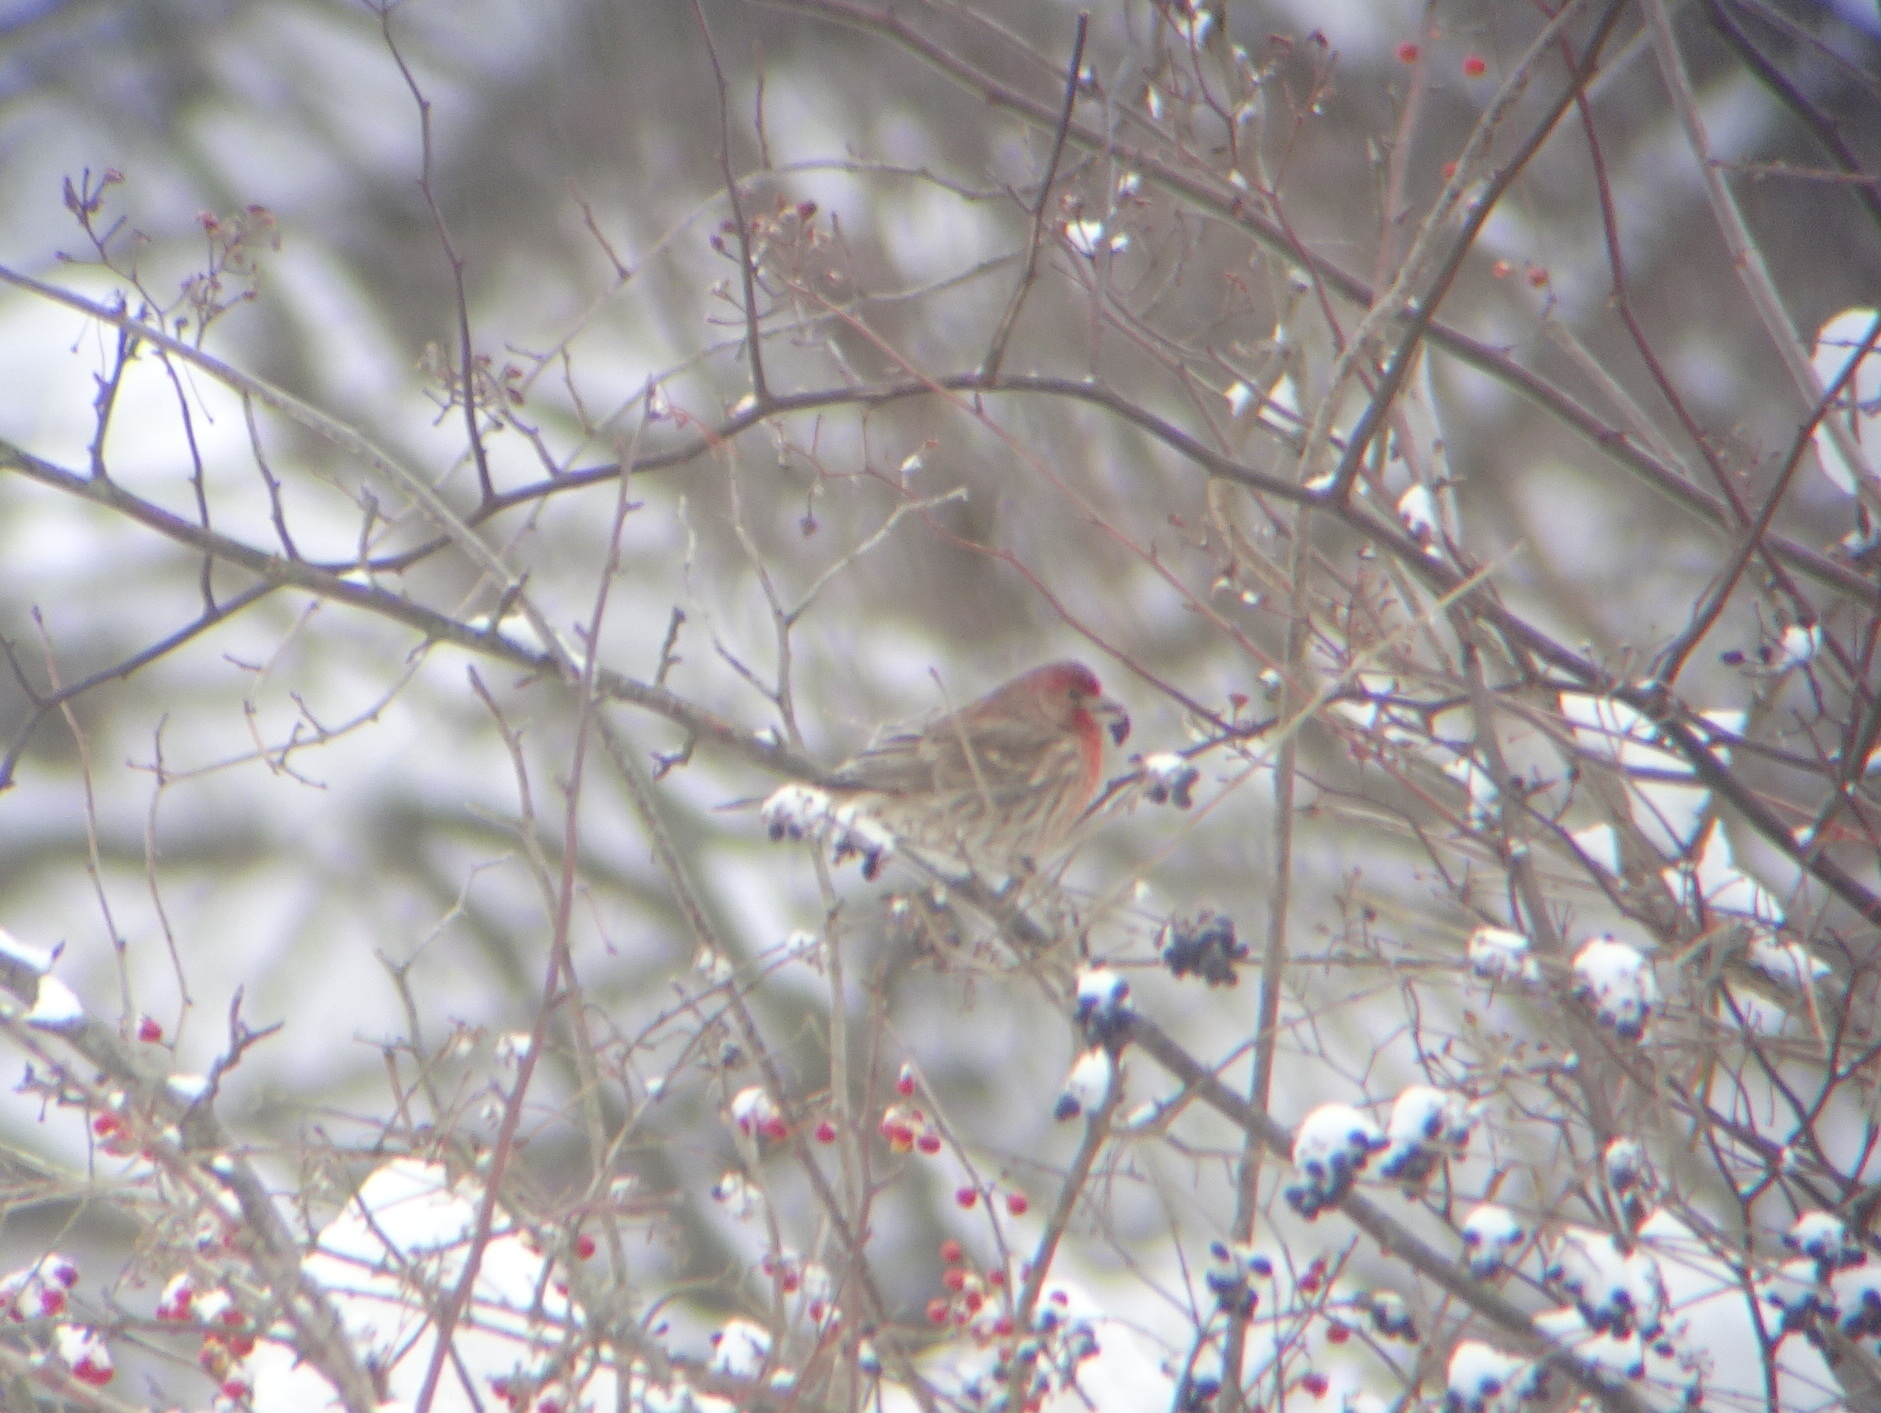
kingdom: Animalia
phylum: Chordata
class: Aves
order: Passeriformes
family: Fringillidae
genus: Haemorhous
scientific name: Haemorhous mexicanus
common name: House finch
